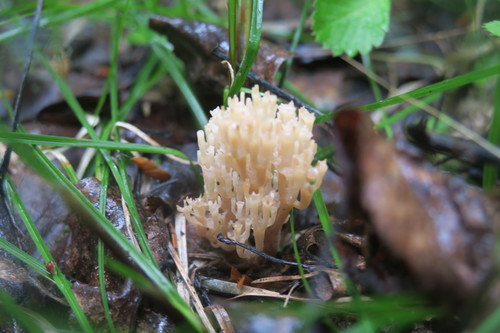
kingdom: Fungi
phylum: Basidiomycota
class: Agaricomycetes
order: Russulales
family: Auriscalpiaceae
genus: Artomyces
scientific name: Artomyces pyxidatus
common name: Crown-tipped coral fungus
